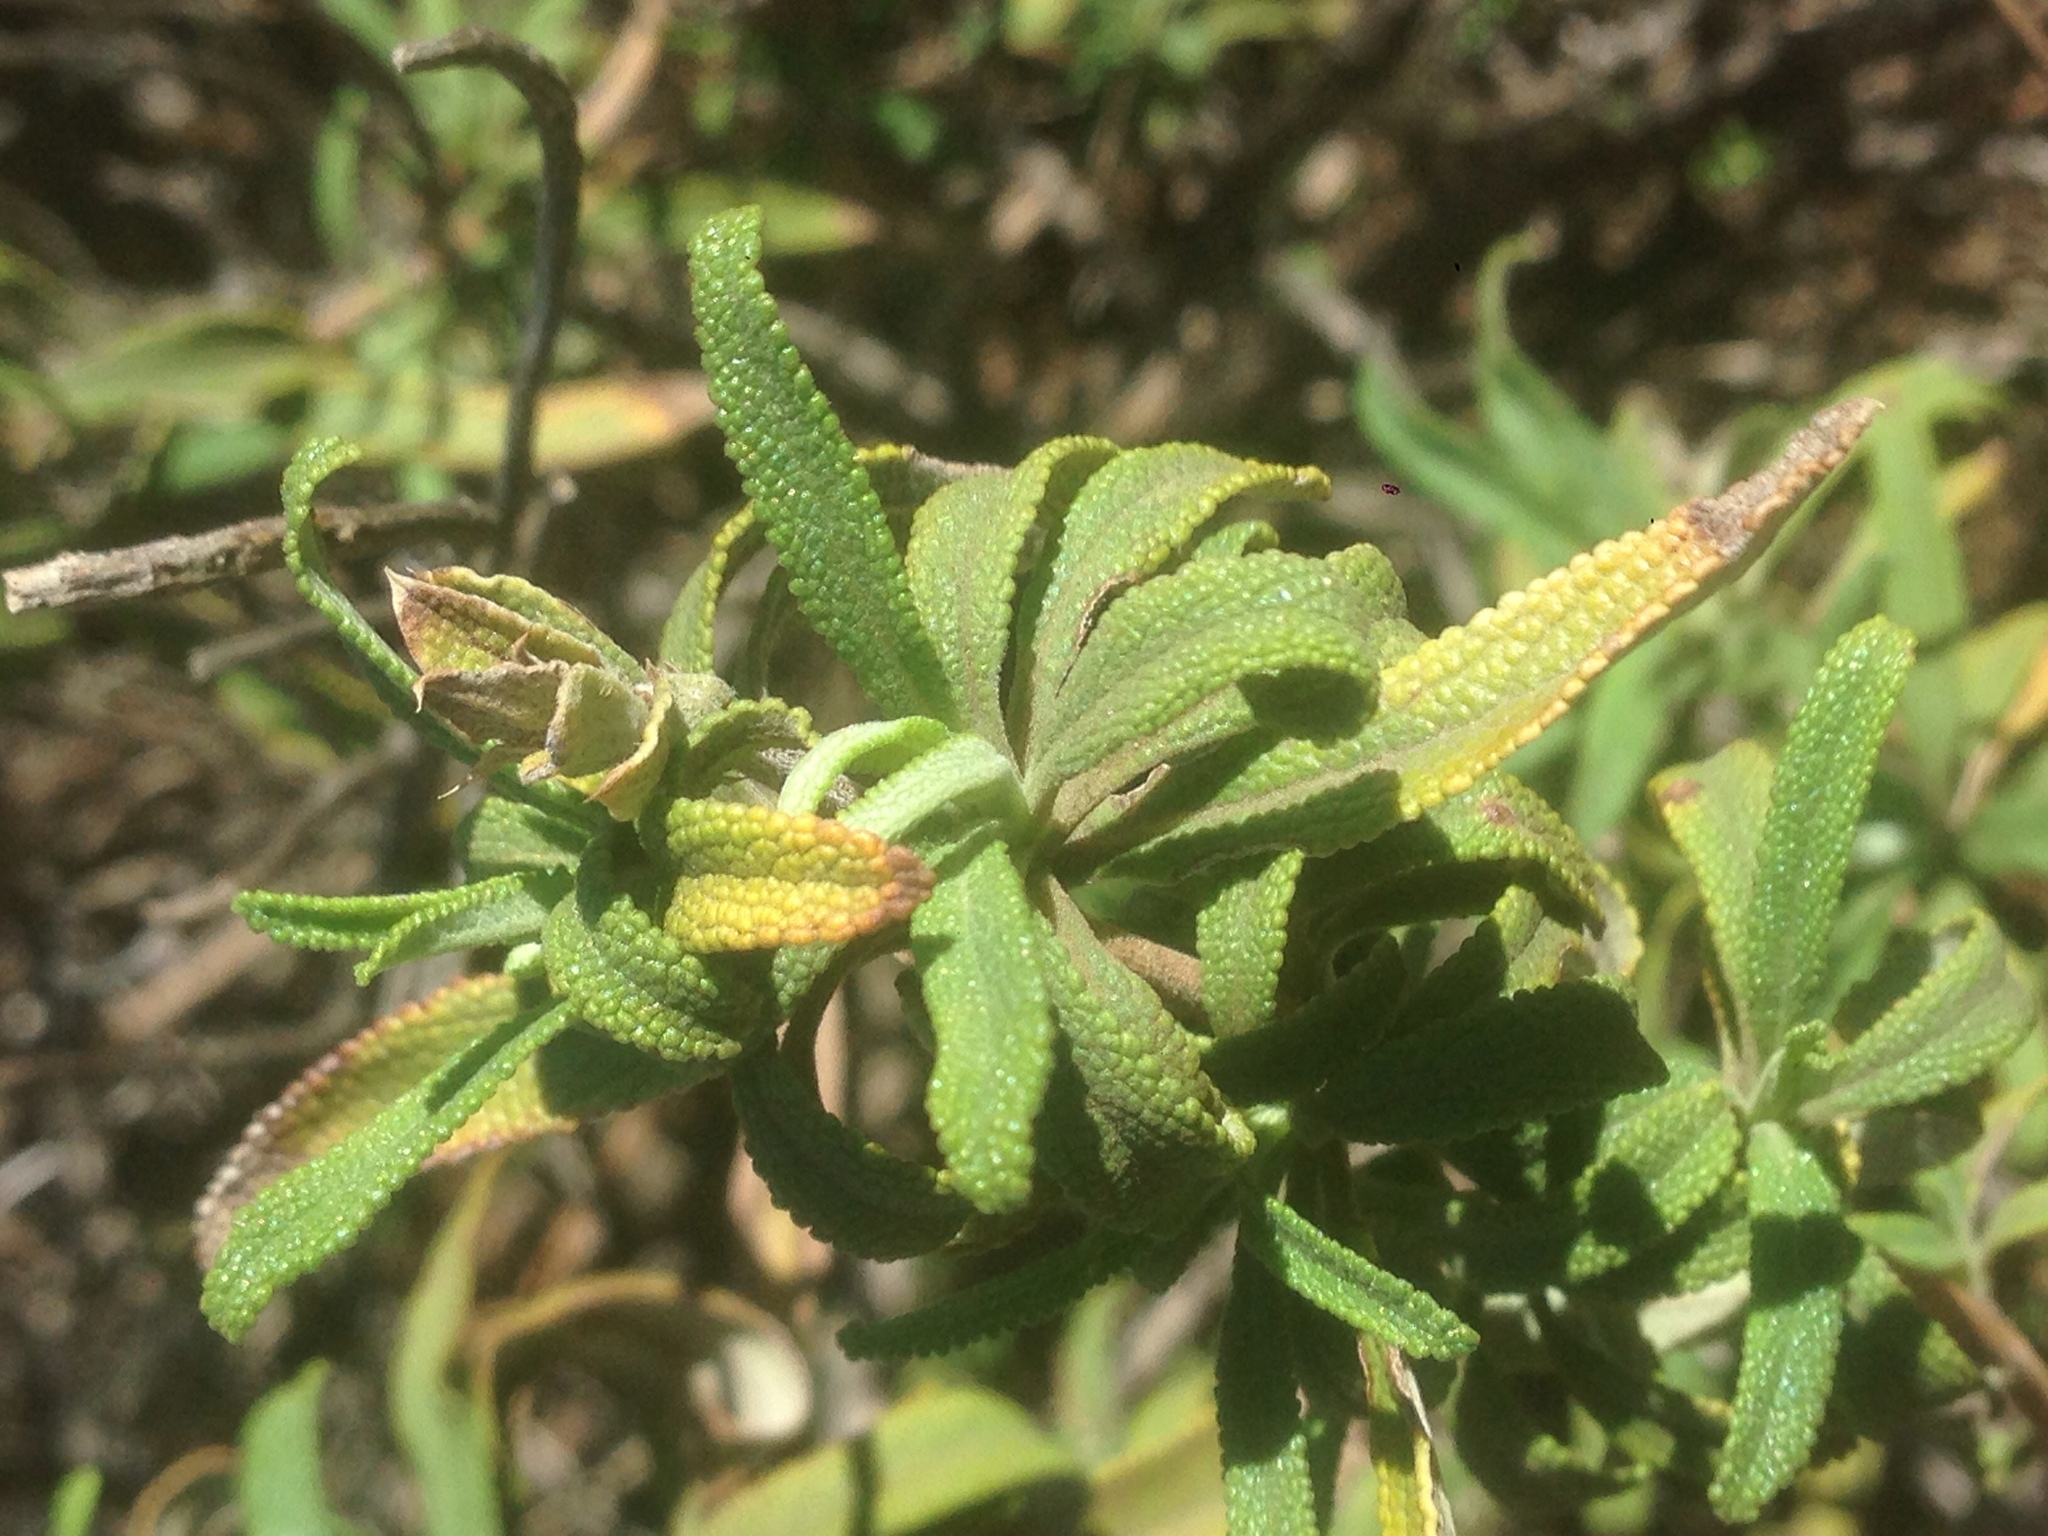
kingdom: Plantae
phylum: Tracheophyta
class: Magnoliopsida
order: Lamiales
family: Lamiaceae
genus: Salvia
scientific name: Salvia mellifera
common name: Black sage
